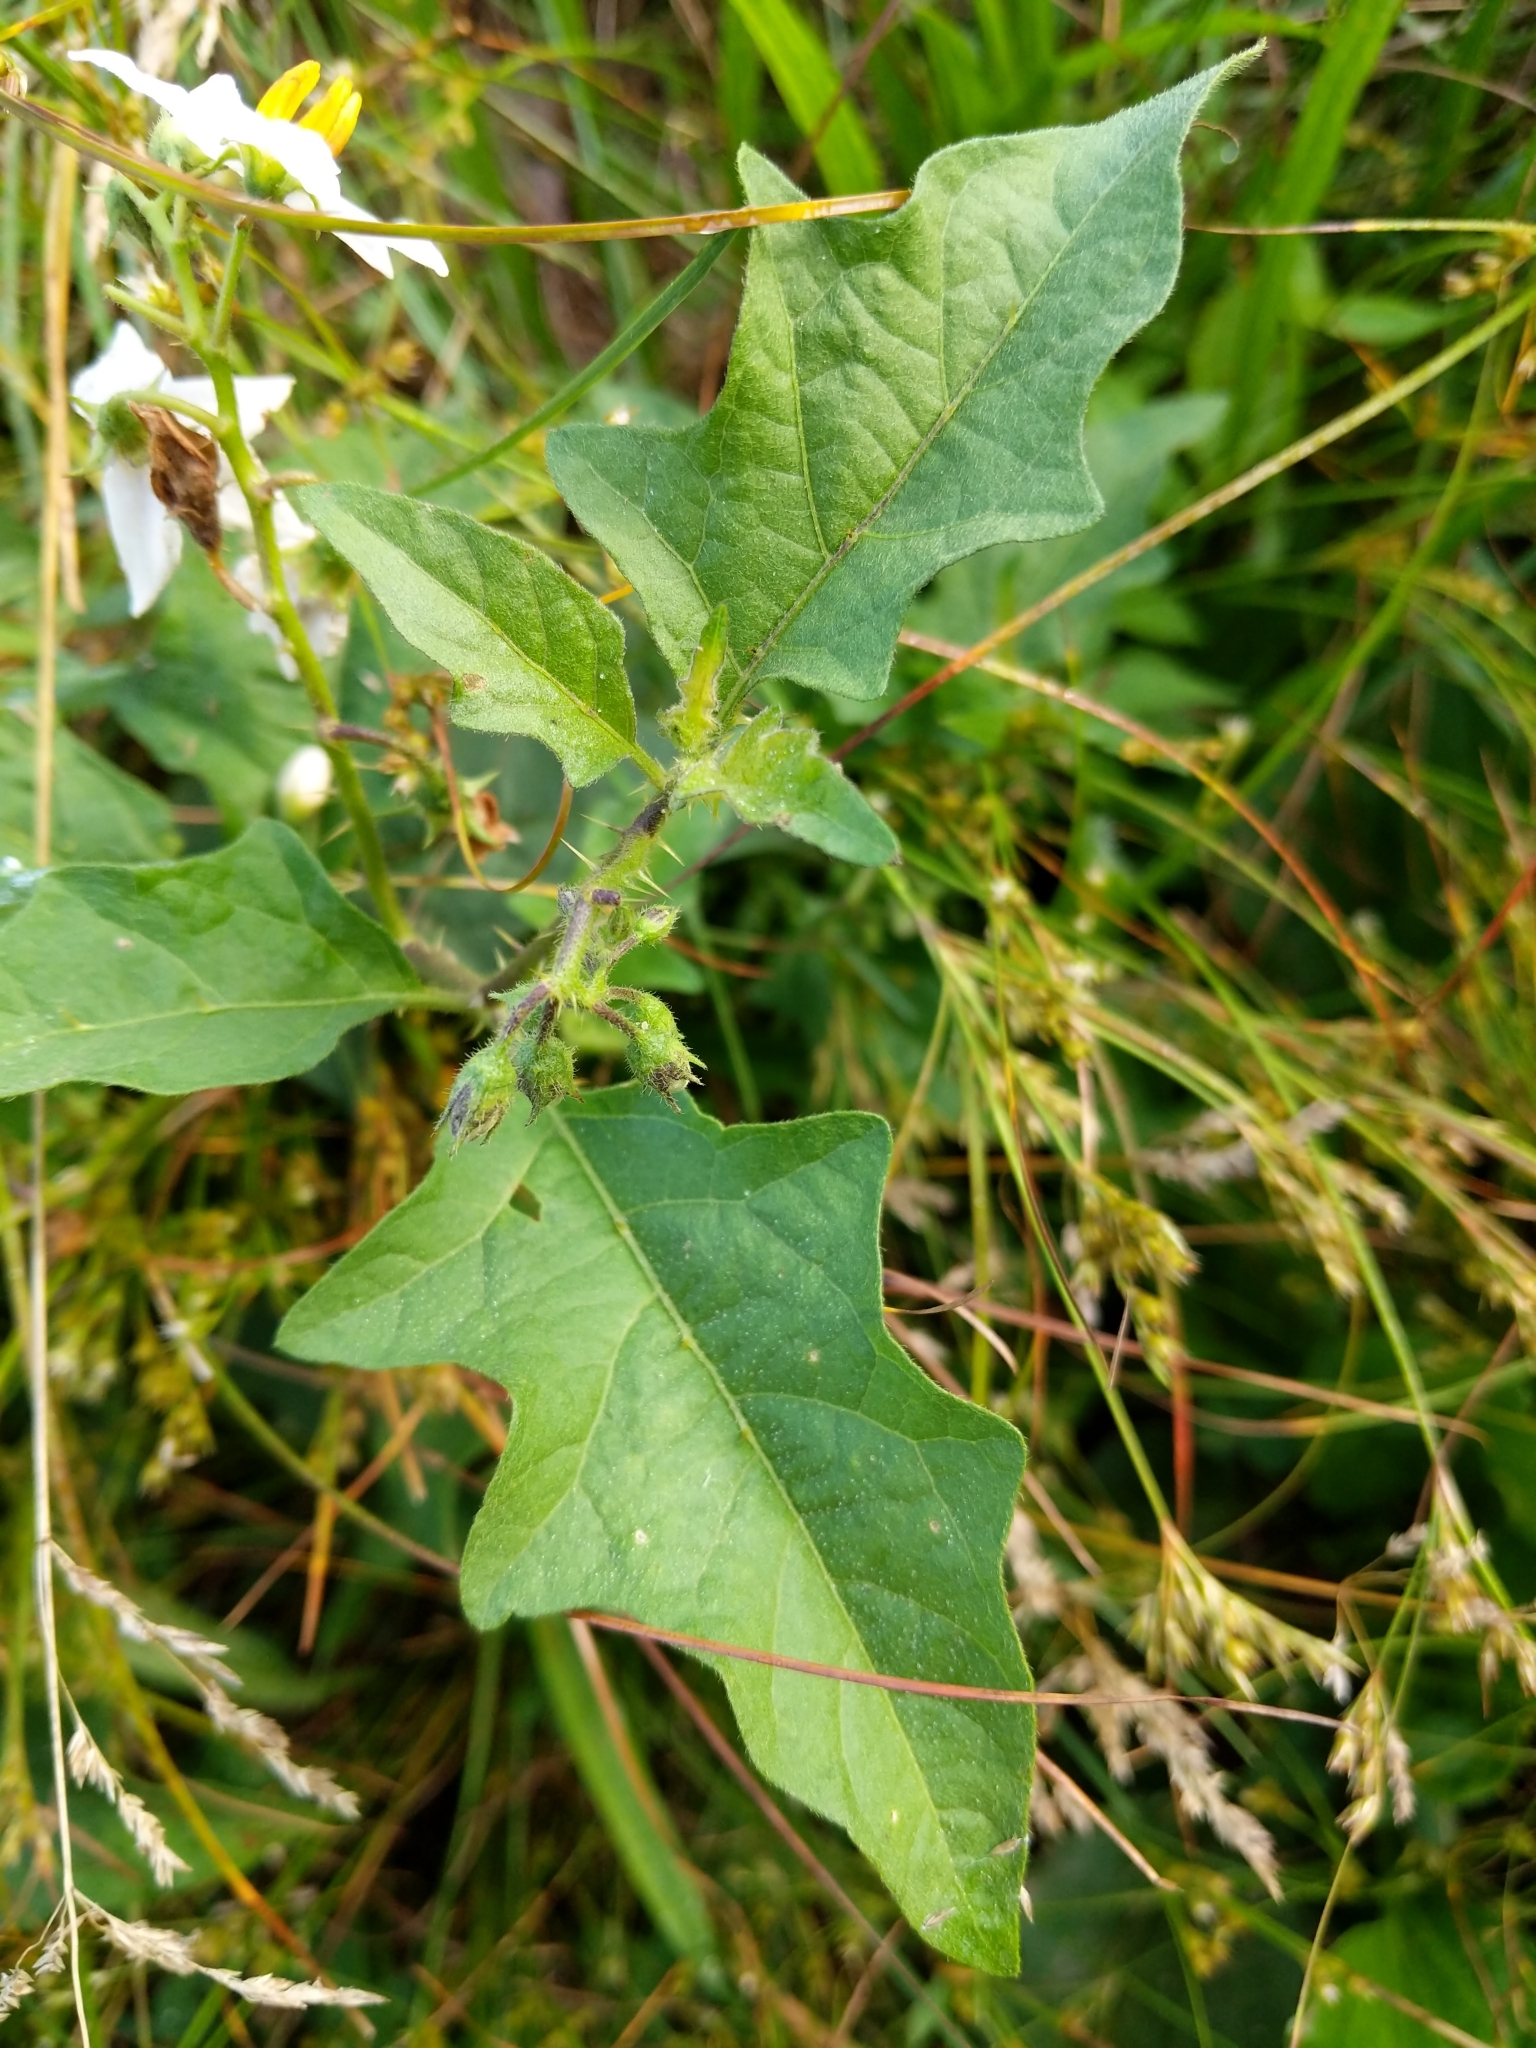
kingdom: Plantae
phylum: Tracheophyta
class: Magnoliopsida
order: Solanales
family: Solanaceae
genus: Solanum
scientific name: Solanum carolinense
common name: Horse-nettle
